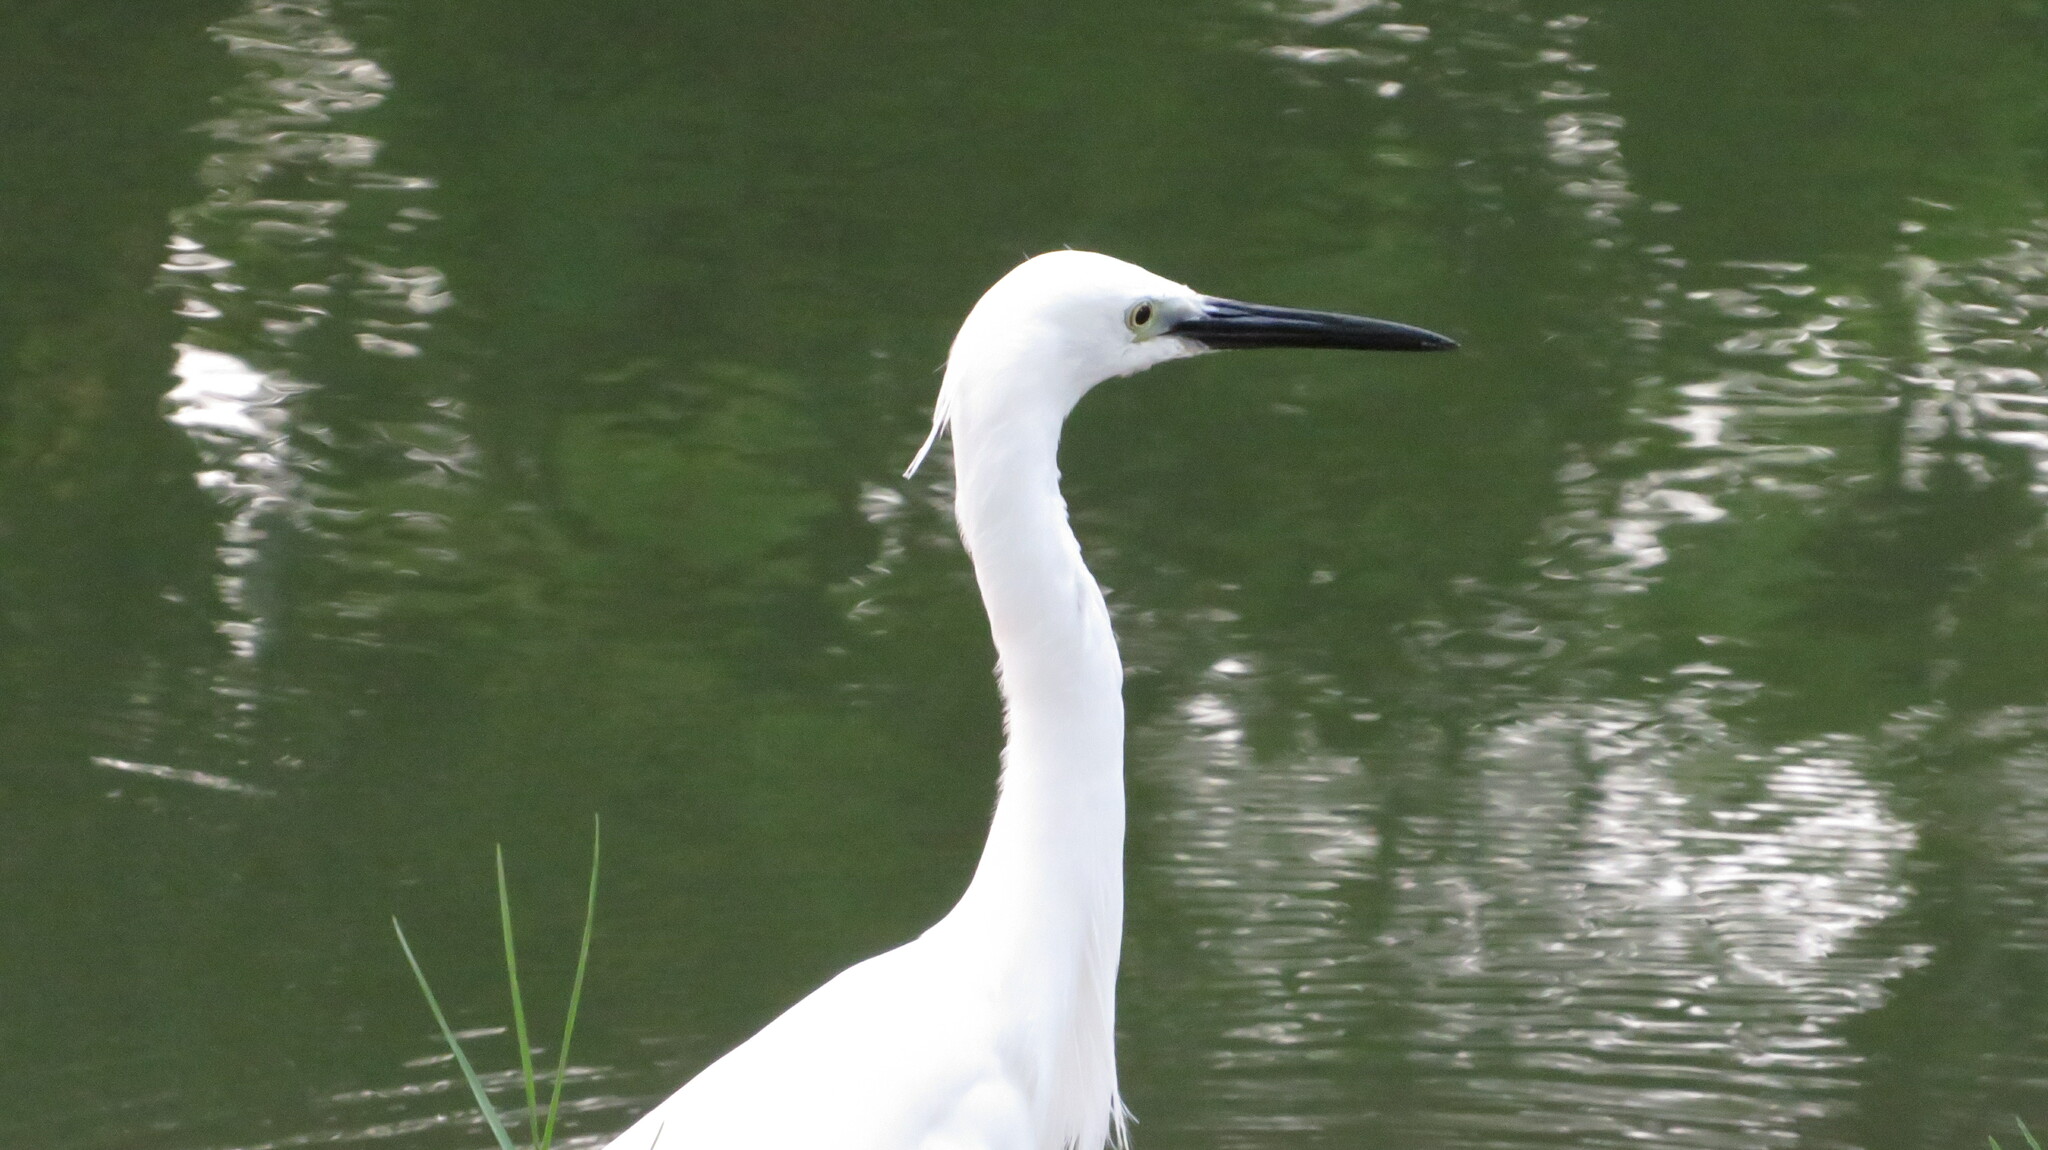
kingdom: Animalia
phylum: Chordata
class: Aves
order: Pelecaniformes
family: Ardeidae
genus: Egretta
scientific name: Egretta garzetta
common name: Little egret
